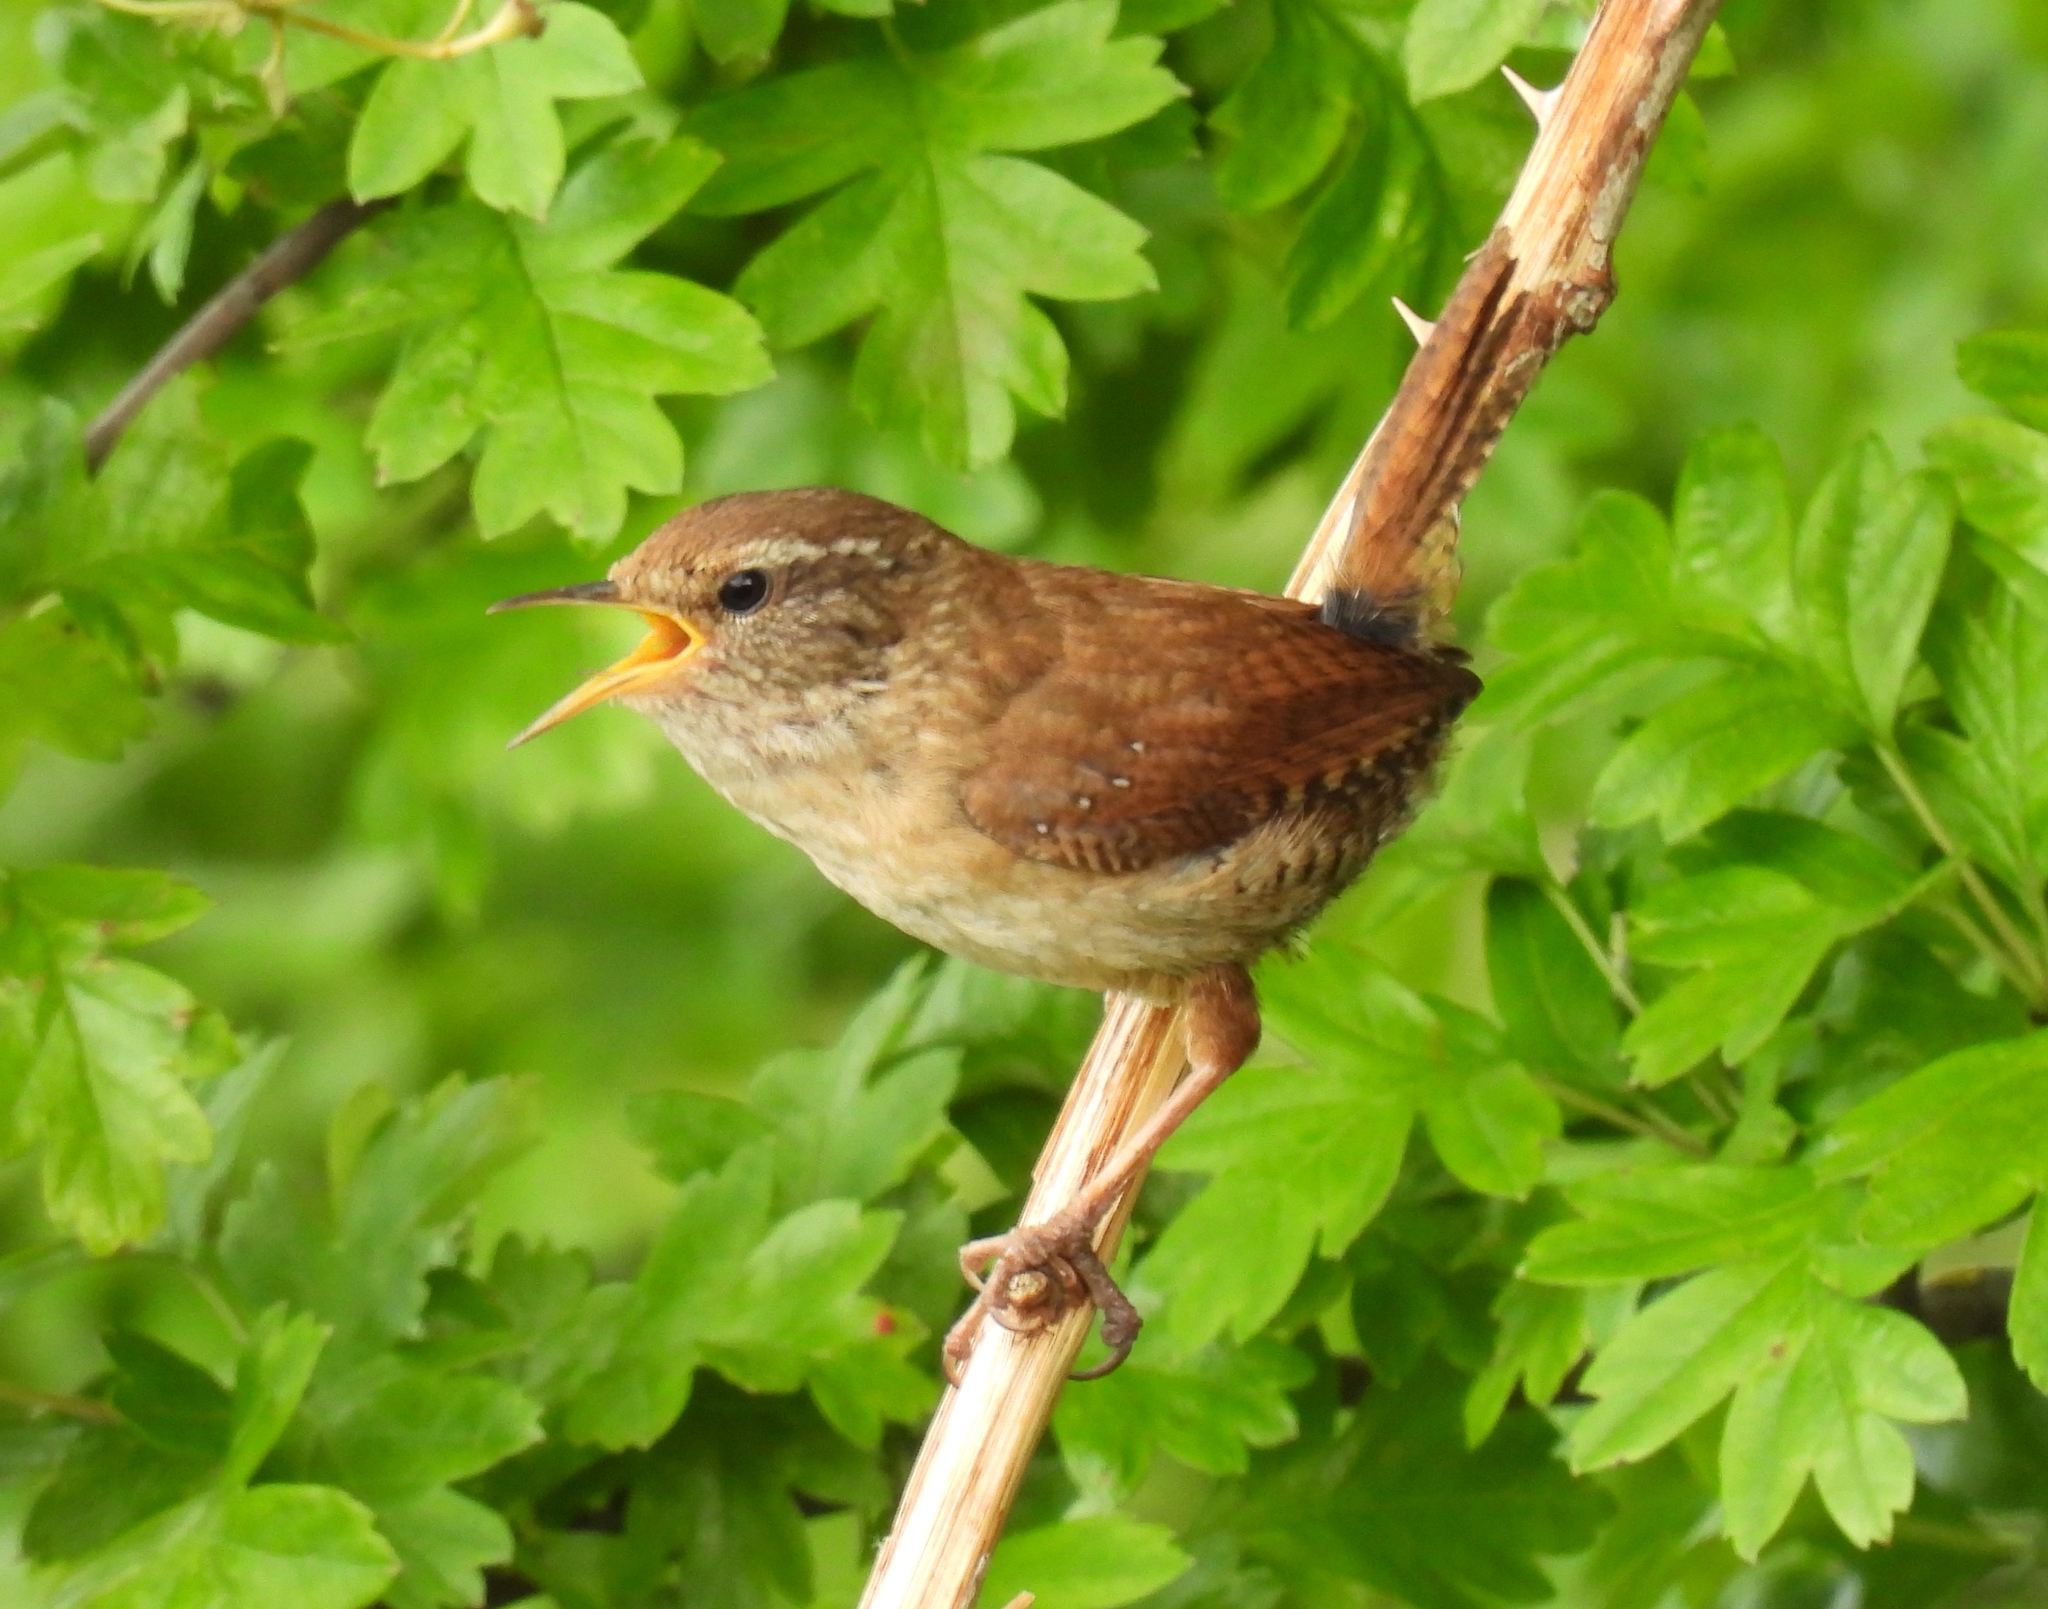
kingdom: Animalia
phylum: Chordata
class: Aves
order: Passeriformes
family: Troglodytidae
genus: Troglodytes
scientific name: Troglodytes troglodytes
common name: Eurasian wren
